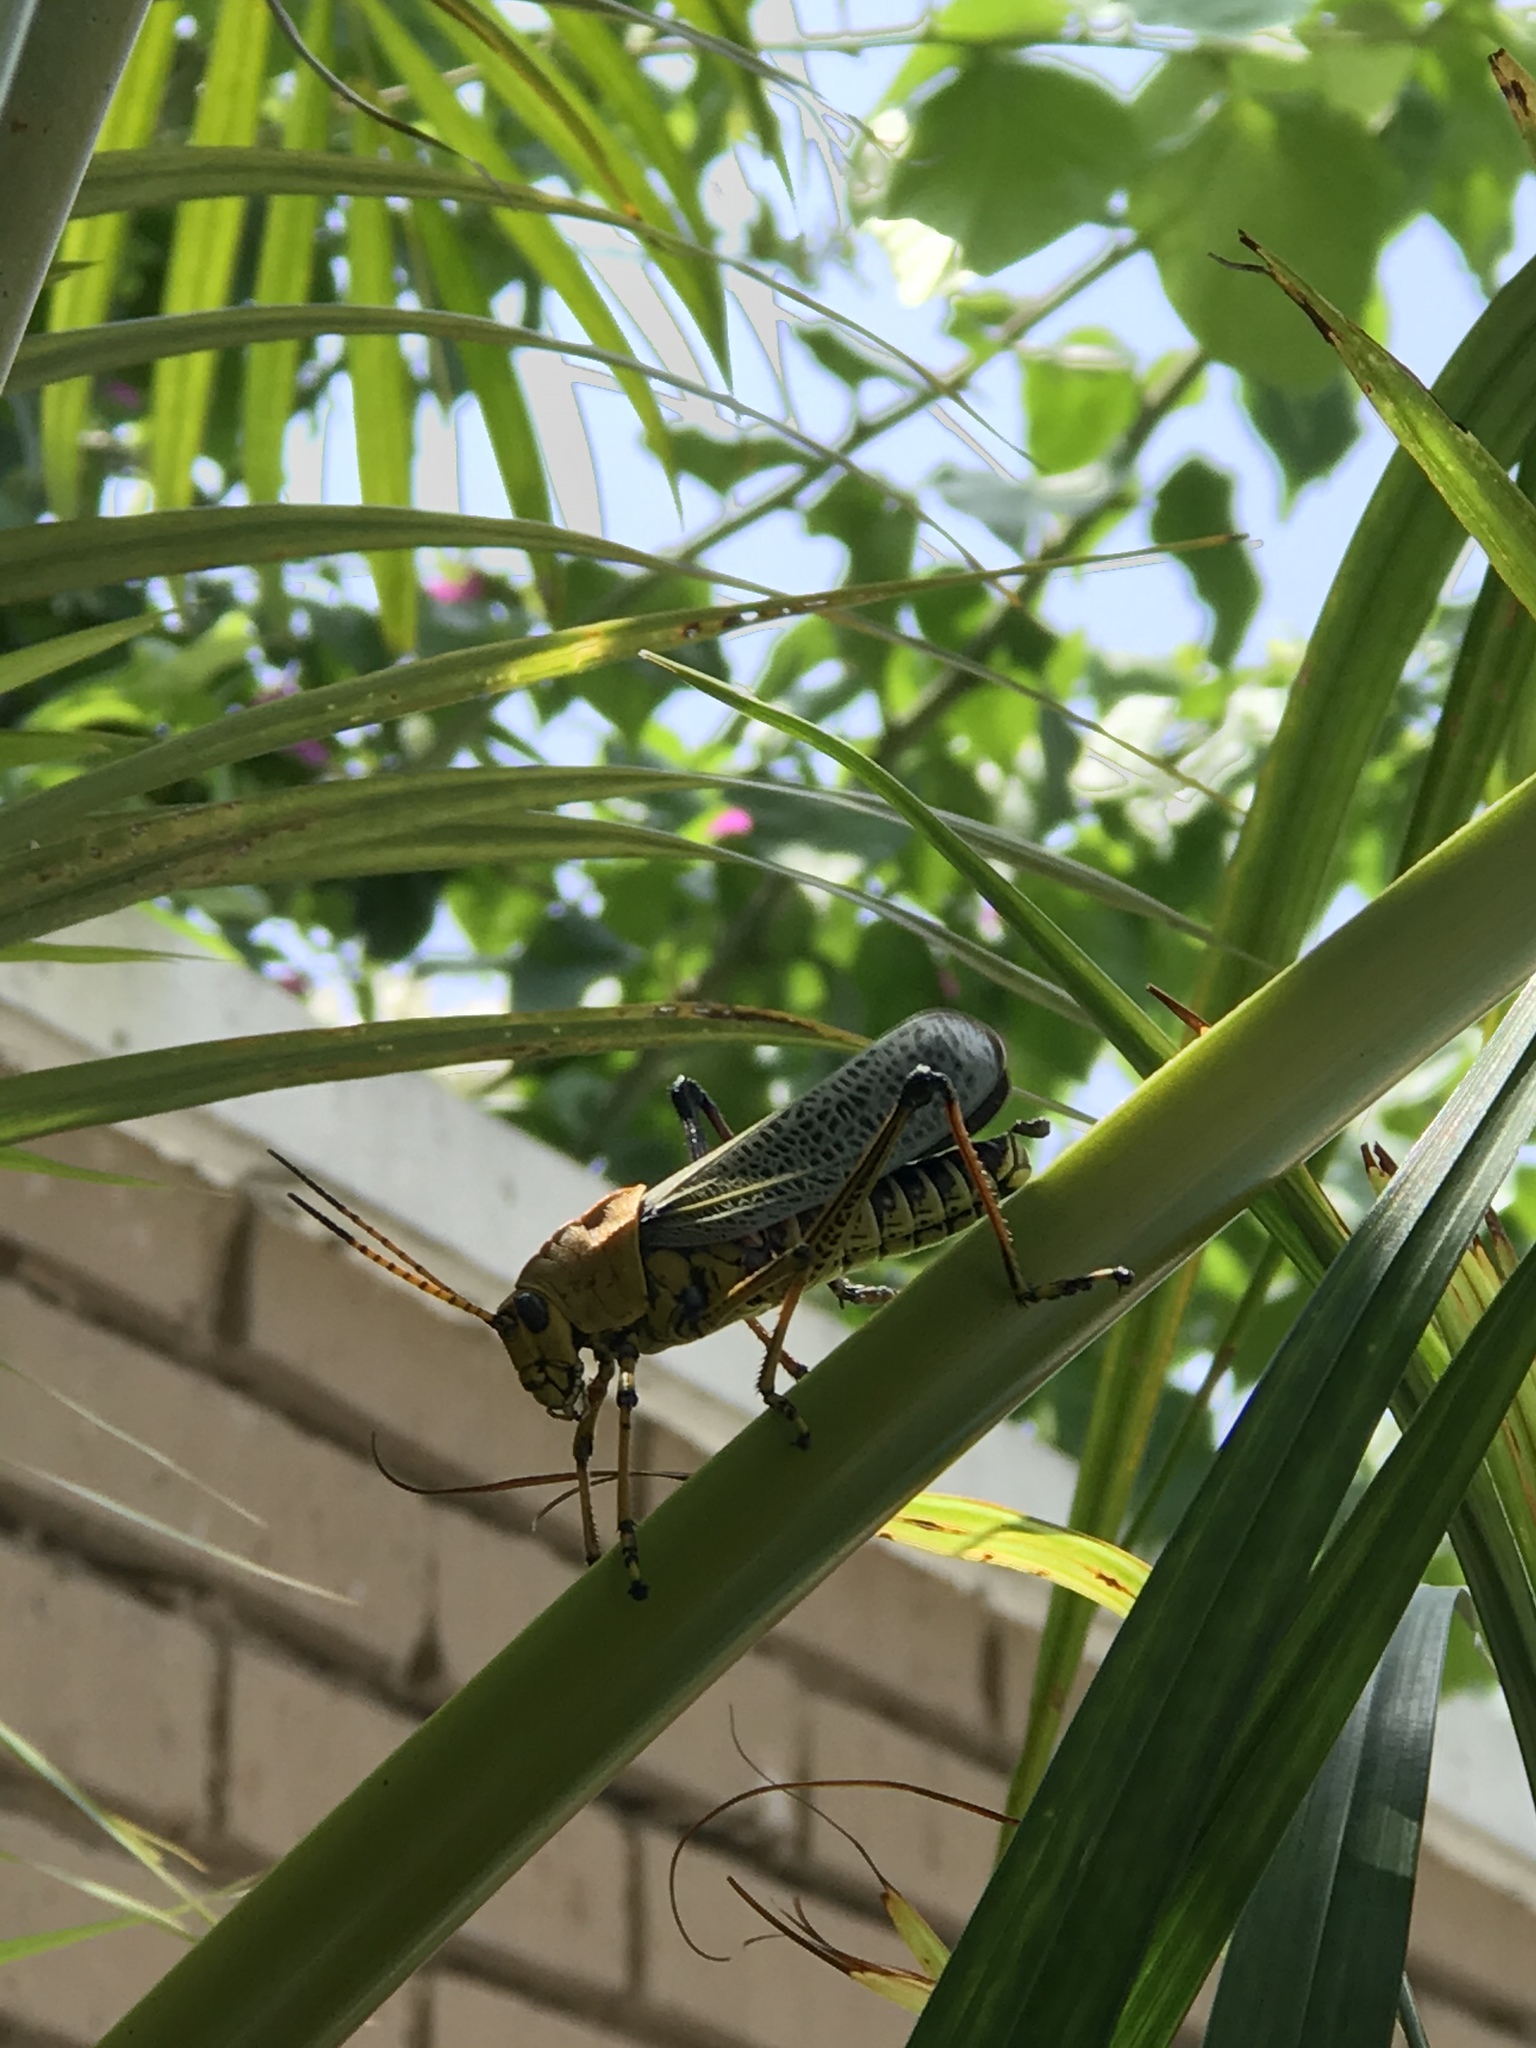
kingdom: Animalia
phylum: Arthropoda
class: Insecta
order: Orthoptera
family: Romaleidae
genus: Romalea
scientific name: Romalea
